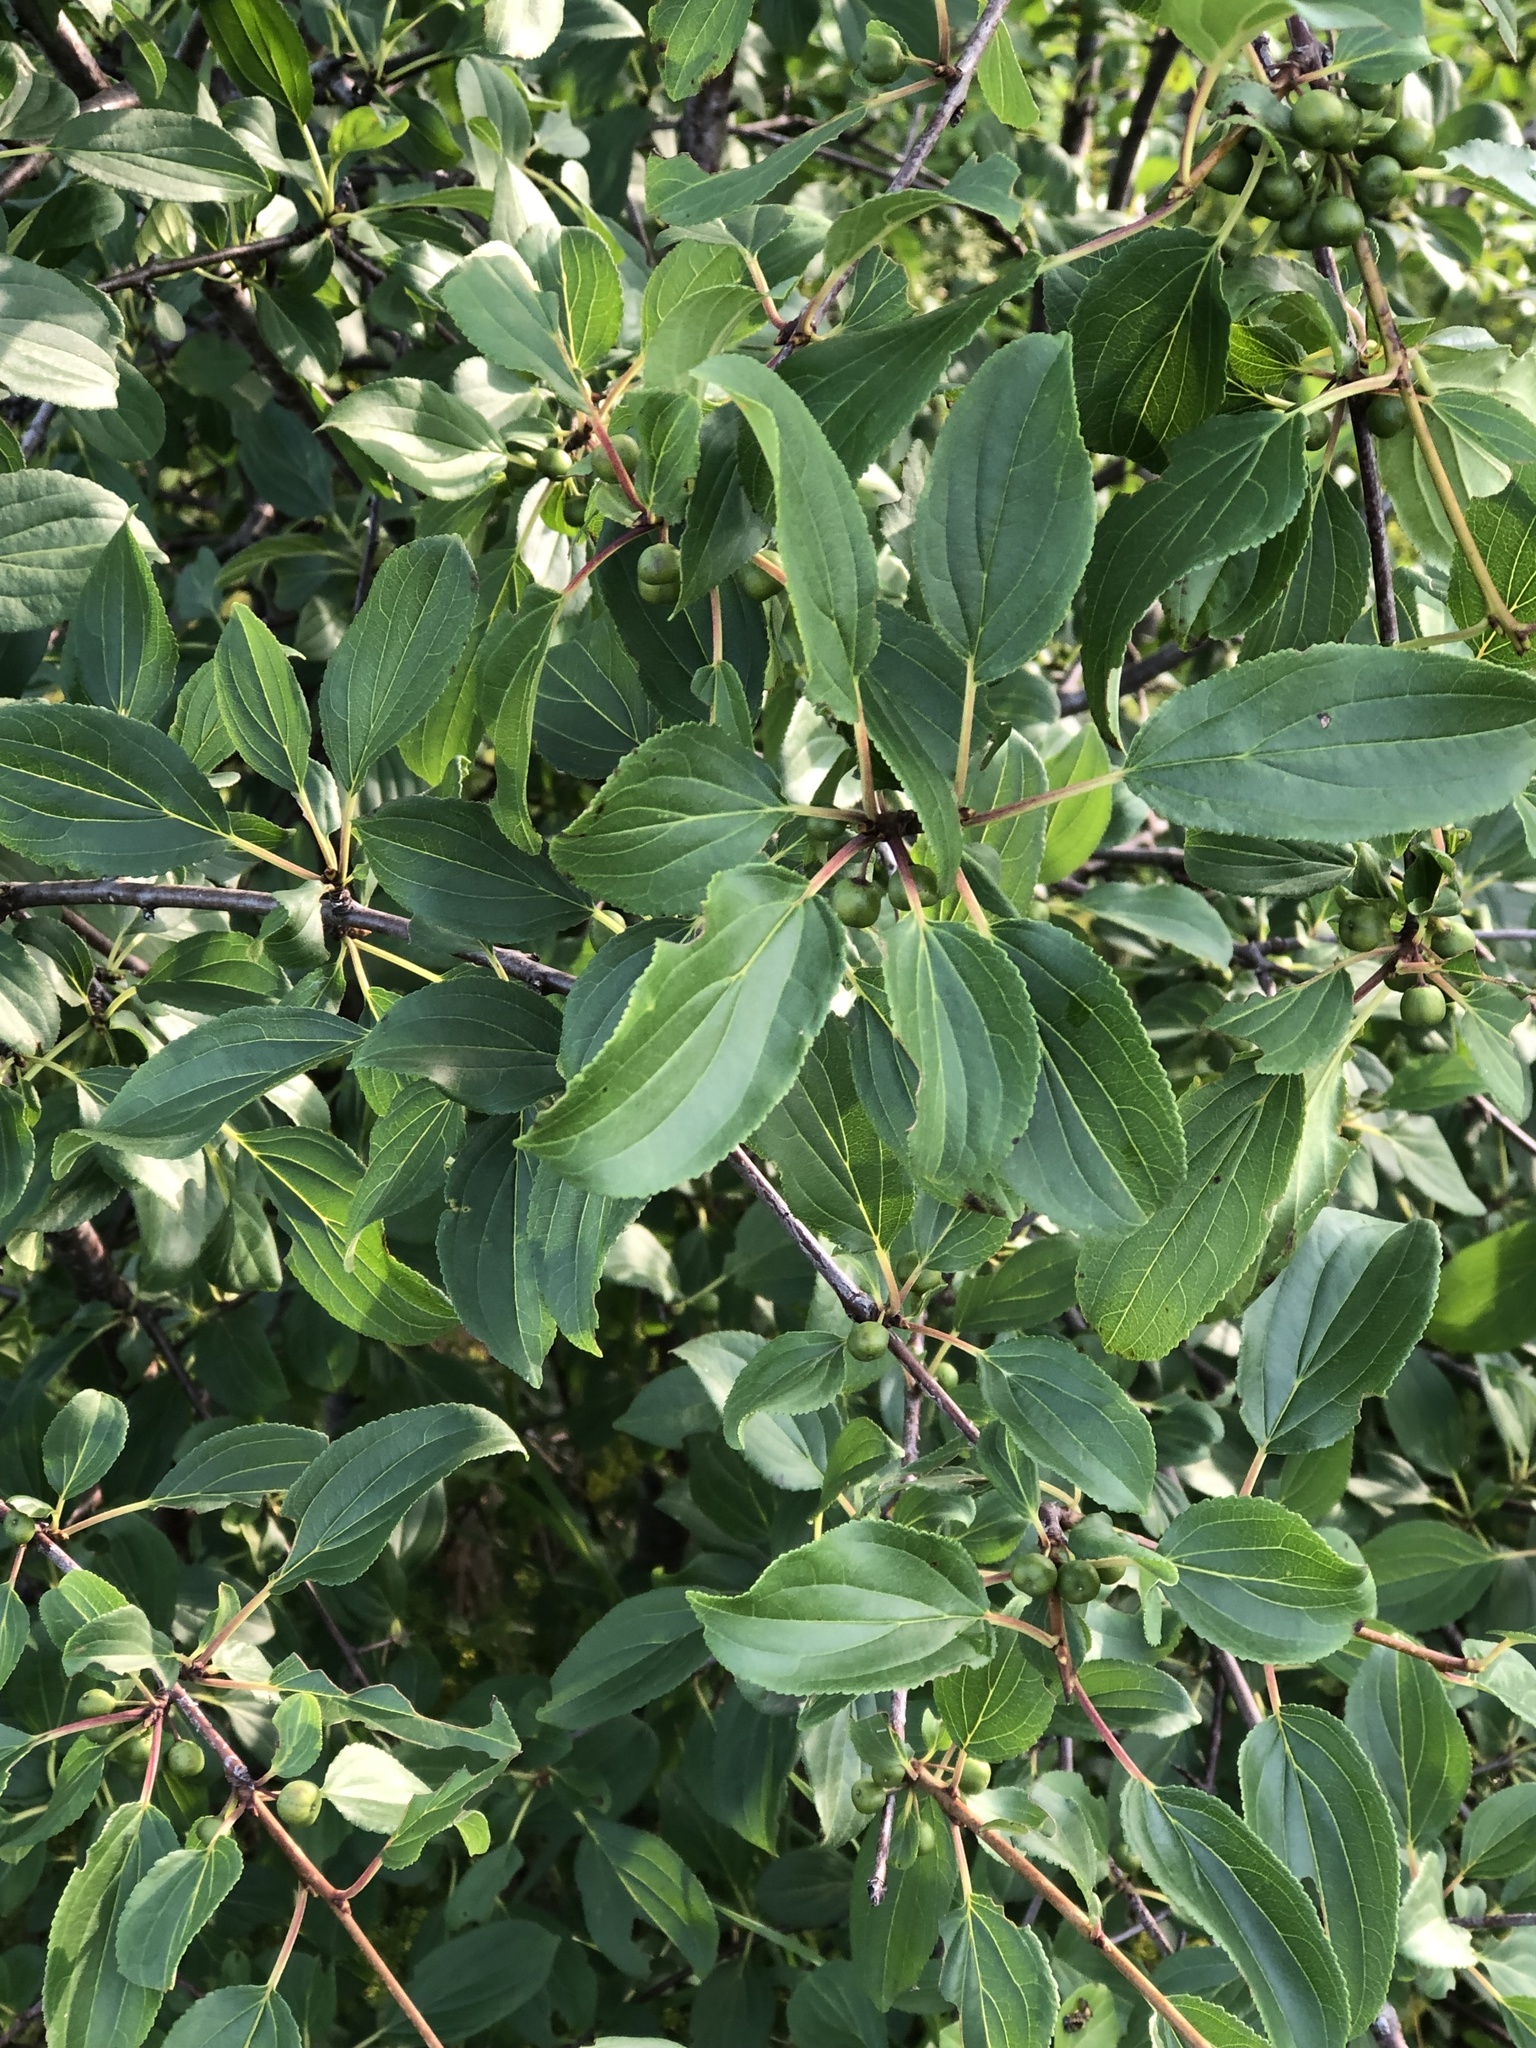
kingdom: Plantae
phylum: Tracheophyta
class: Magnoliopsida
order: Rosales
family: Rhamnaceae
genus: Rhamnus
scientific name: Rhamnus cathartica
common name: Common buckthorn
